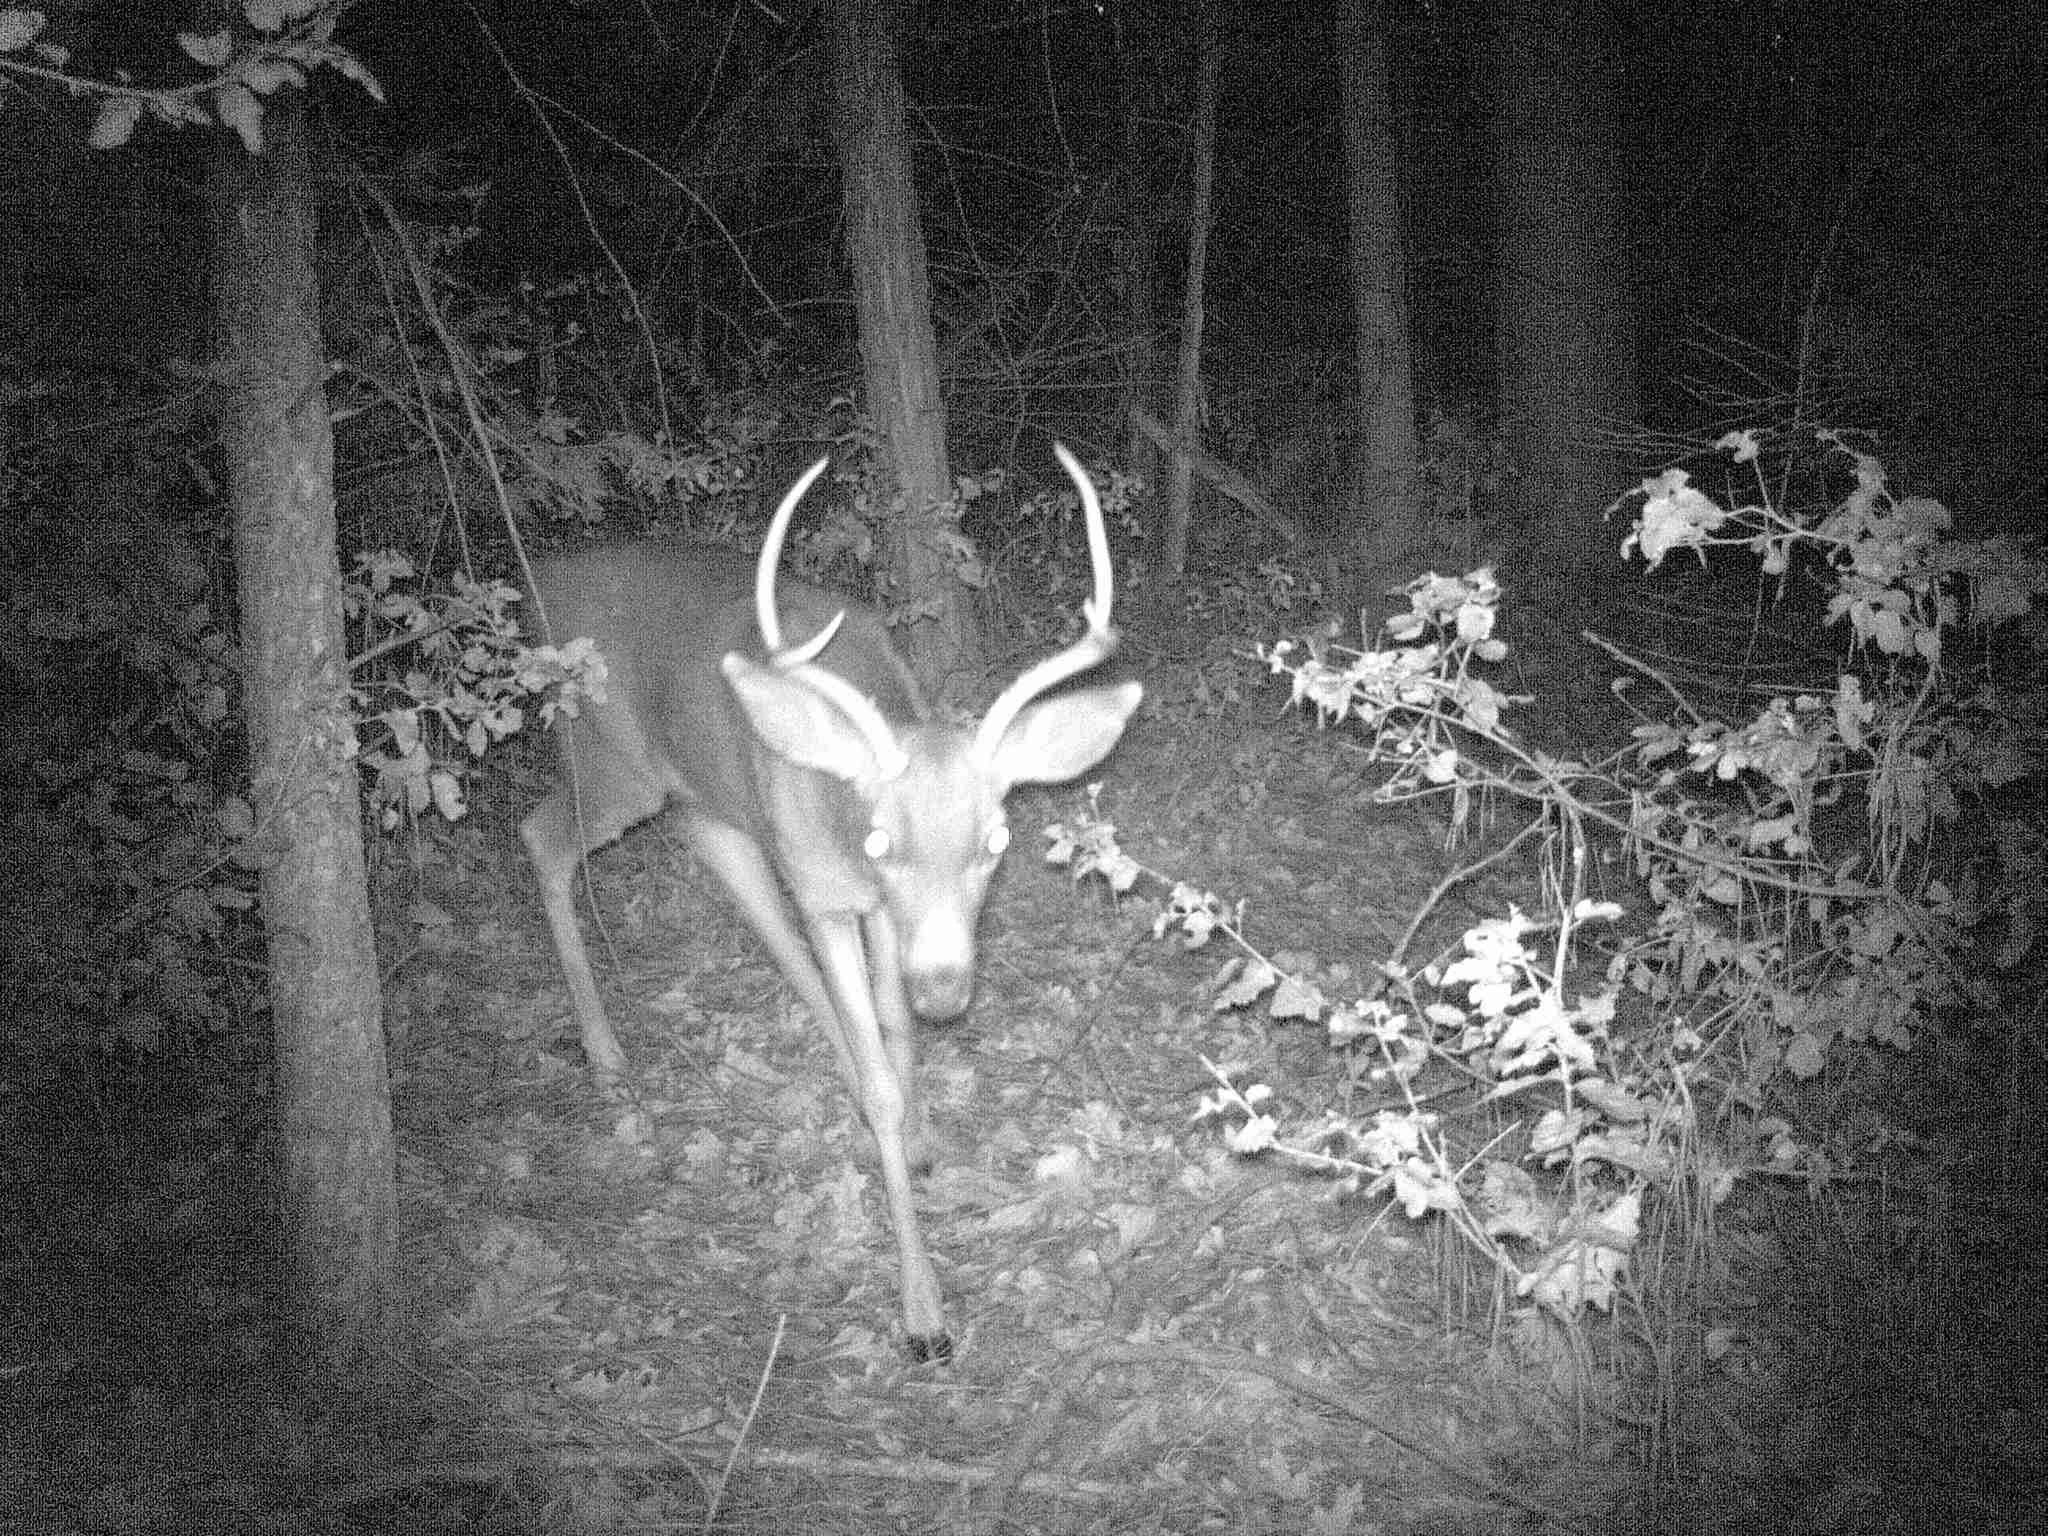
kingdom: Animalia
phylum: Chordata
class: Mammalia
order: Artiodactyla
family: Cervidae
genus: Odocoileus
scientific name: Odocoileus hemionus
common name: Mule deer
